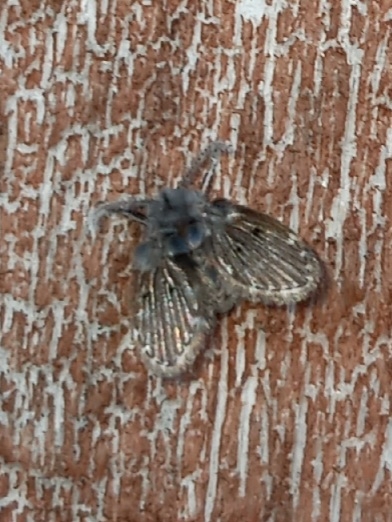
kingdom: Animalia
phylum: Arthropoda
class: Insecta
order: Diptera
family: Psychodidae
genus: Clogmia
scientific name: Clogmia albipunctatus
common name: White-spotted moth fly
